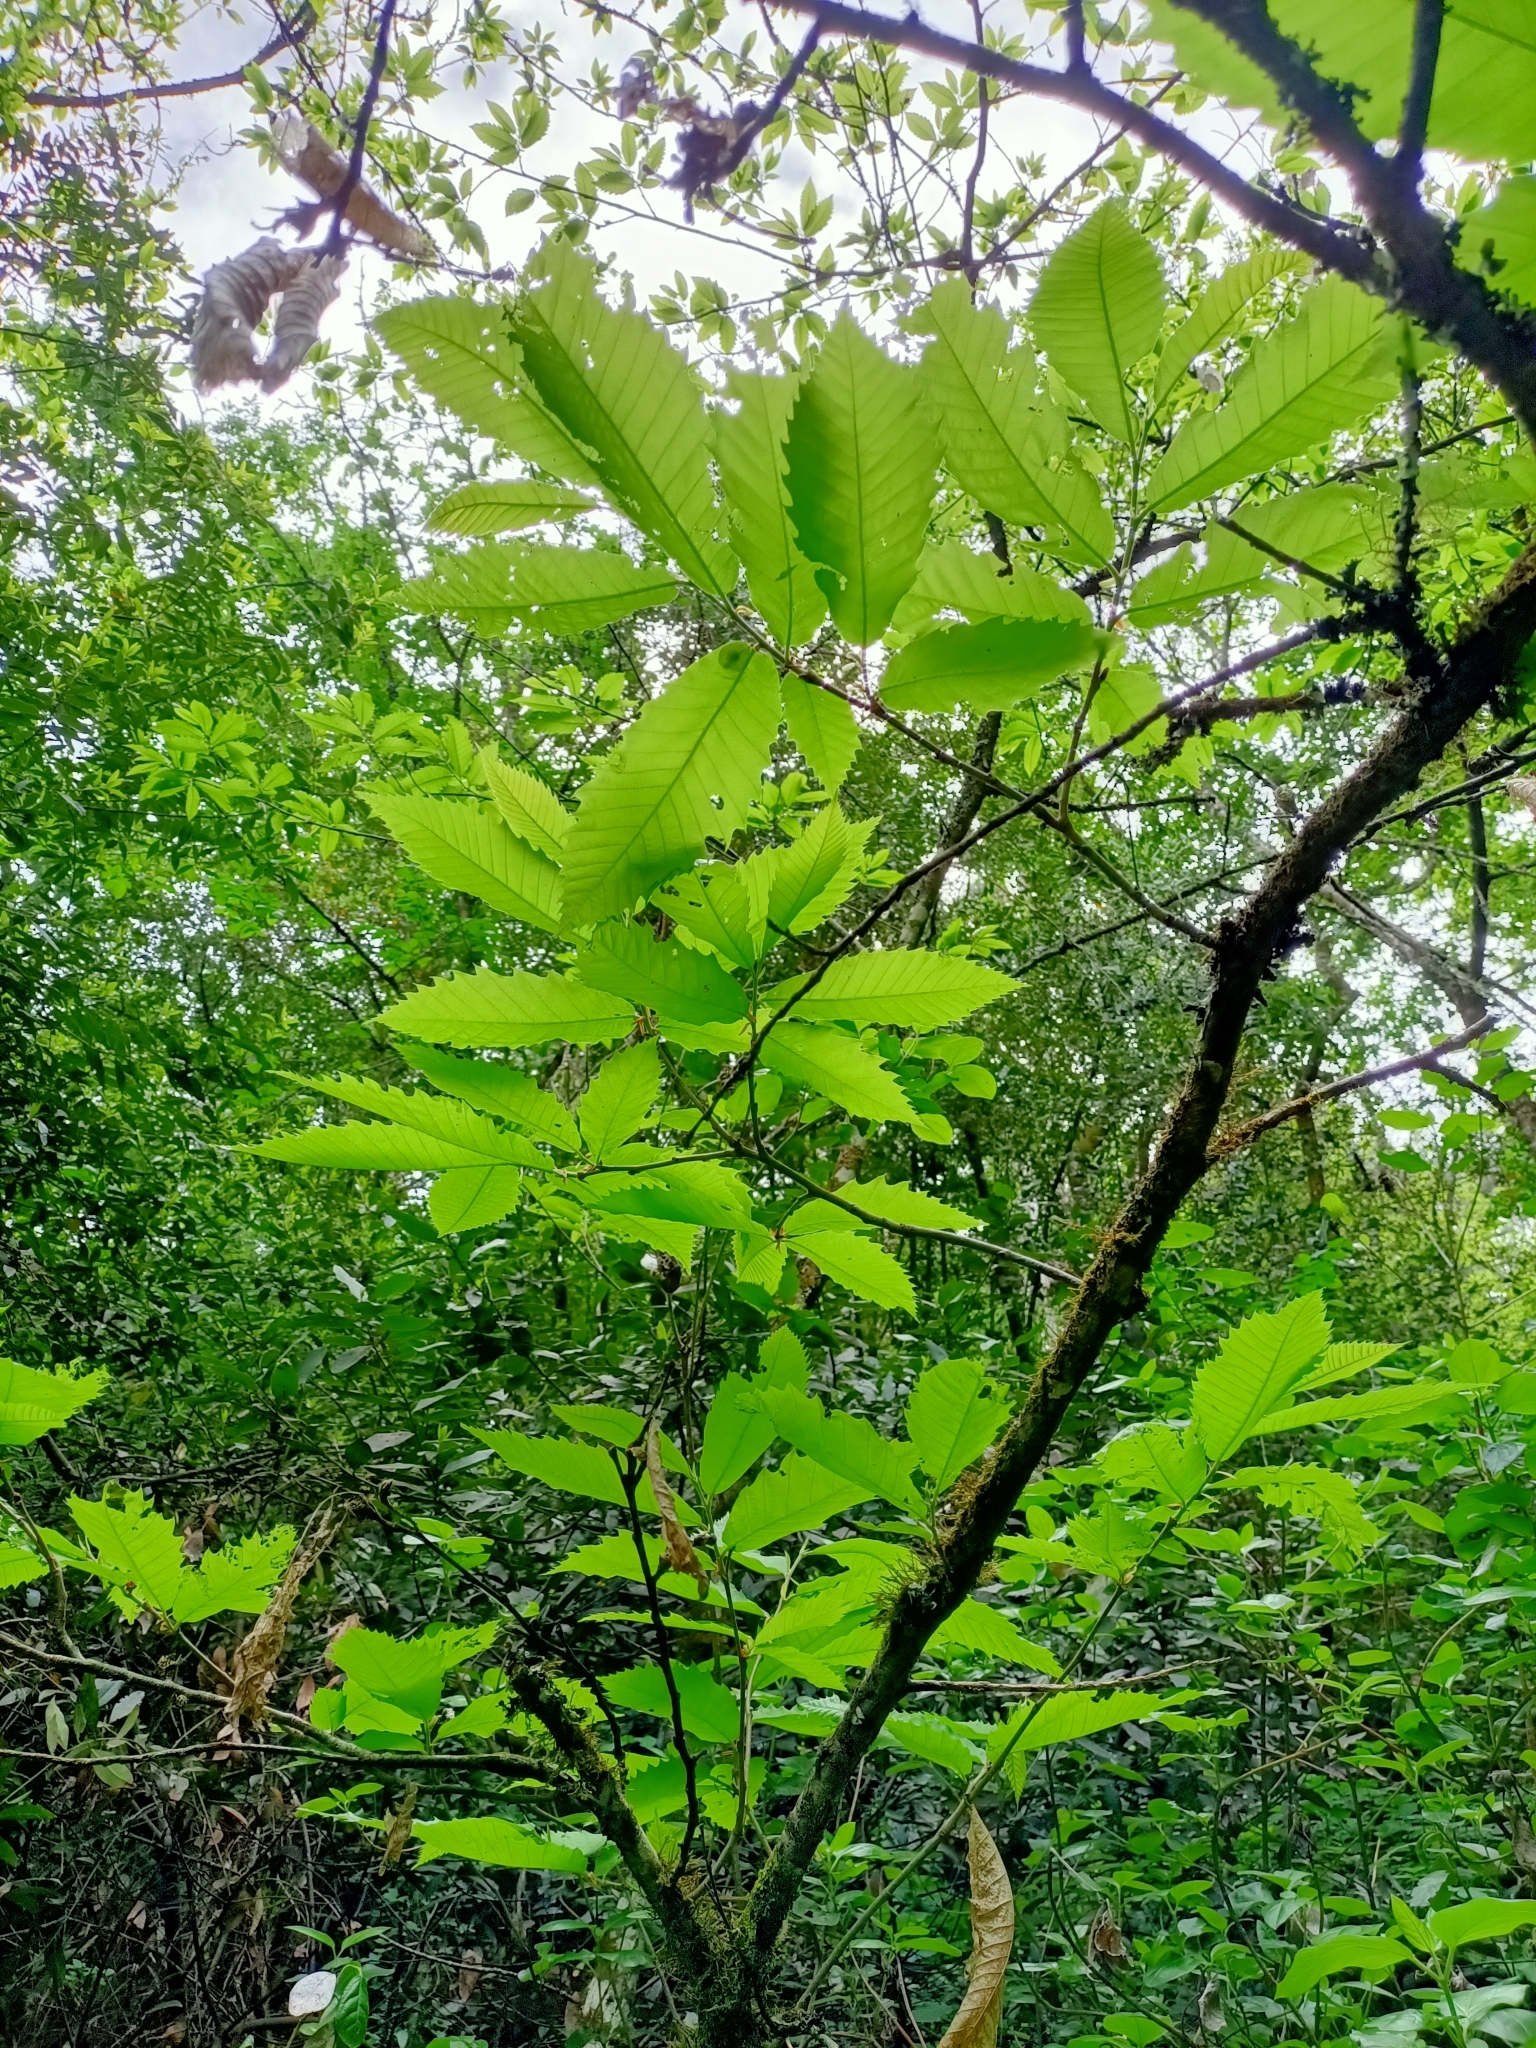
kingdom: Plantae
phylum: Tracheophyta
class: Magnoliopsida
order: Fagales
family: Fagaceae
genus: Castanea
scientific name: Castanea sativa
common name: Sweet chestnut
